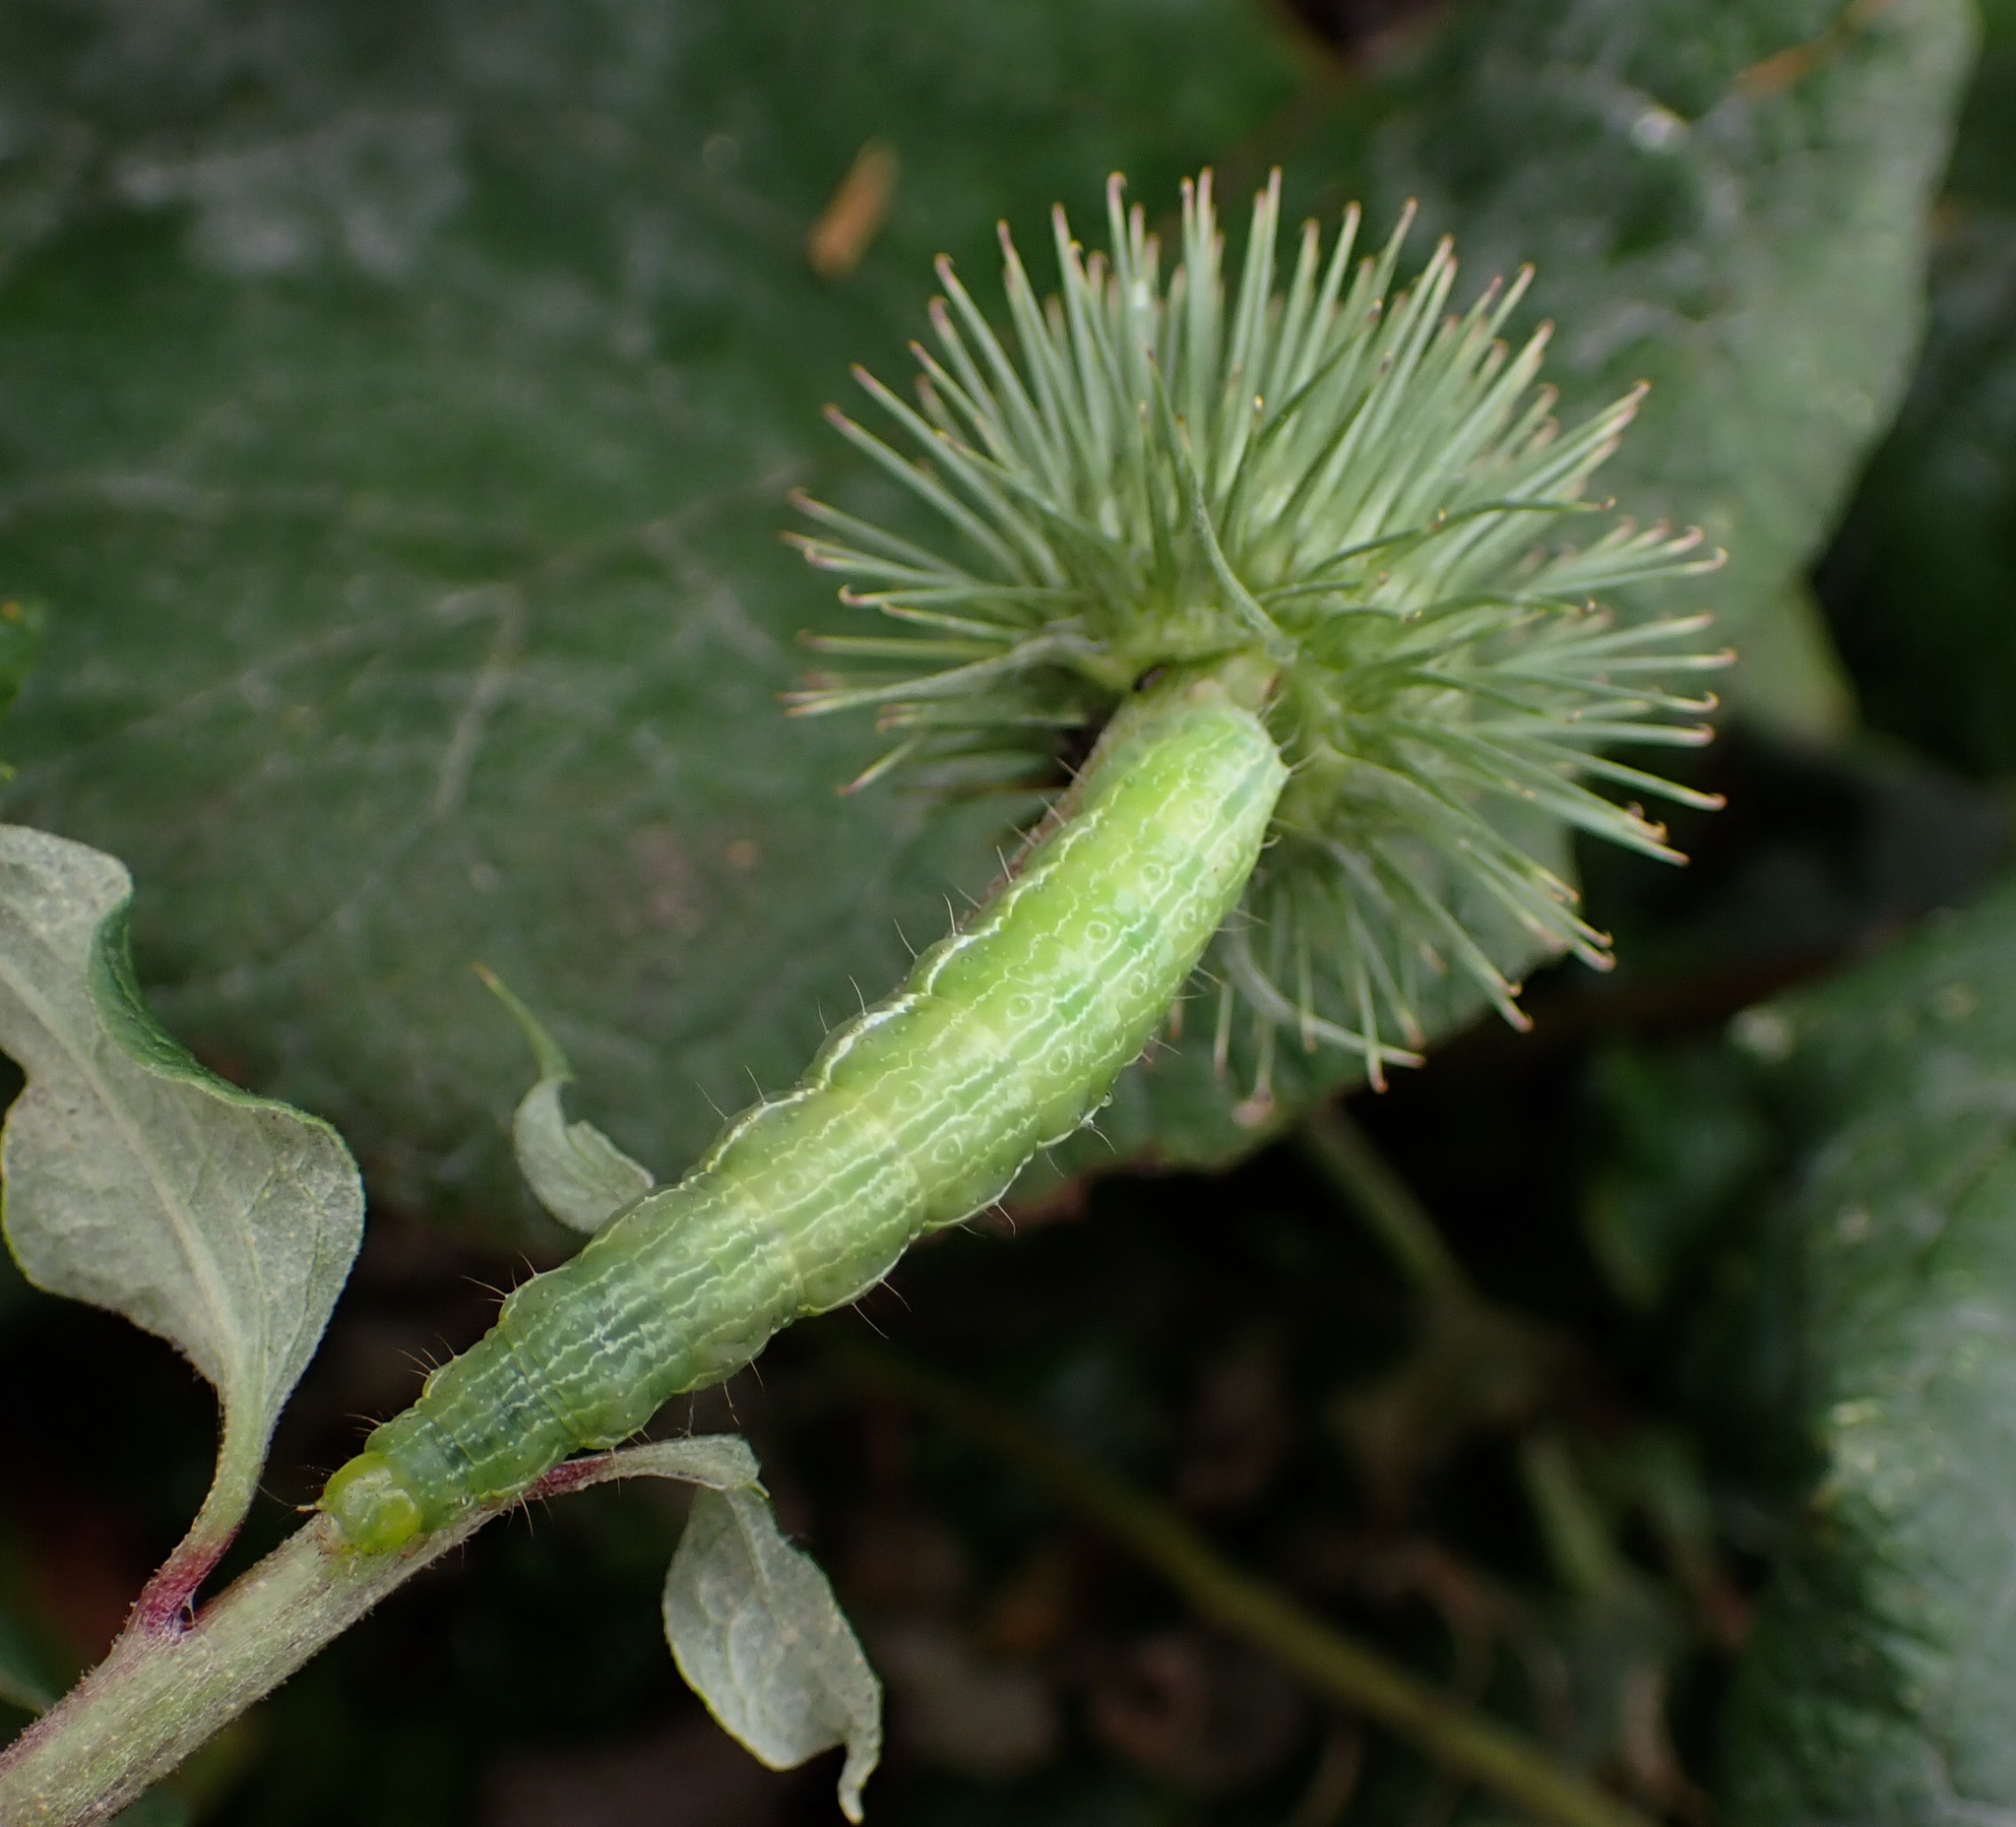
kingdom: Animalia
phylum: Arthropoda
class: Insecta
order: Lepidoptera
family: Noctuidae
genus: Autographa
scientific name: Autographa gamma
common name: Silver y
